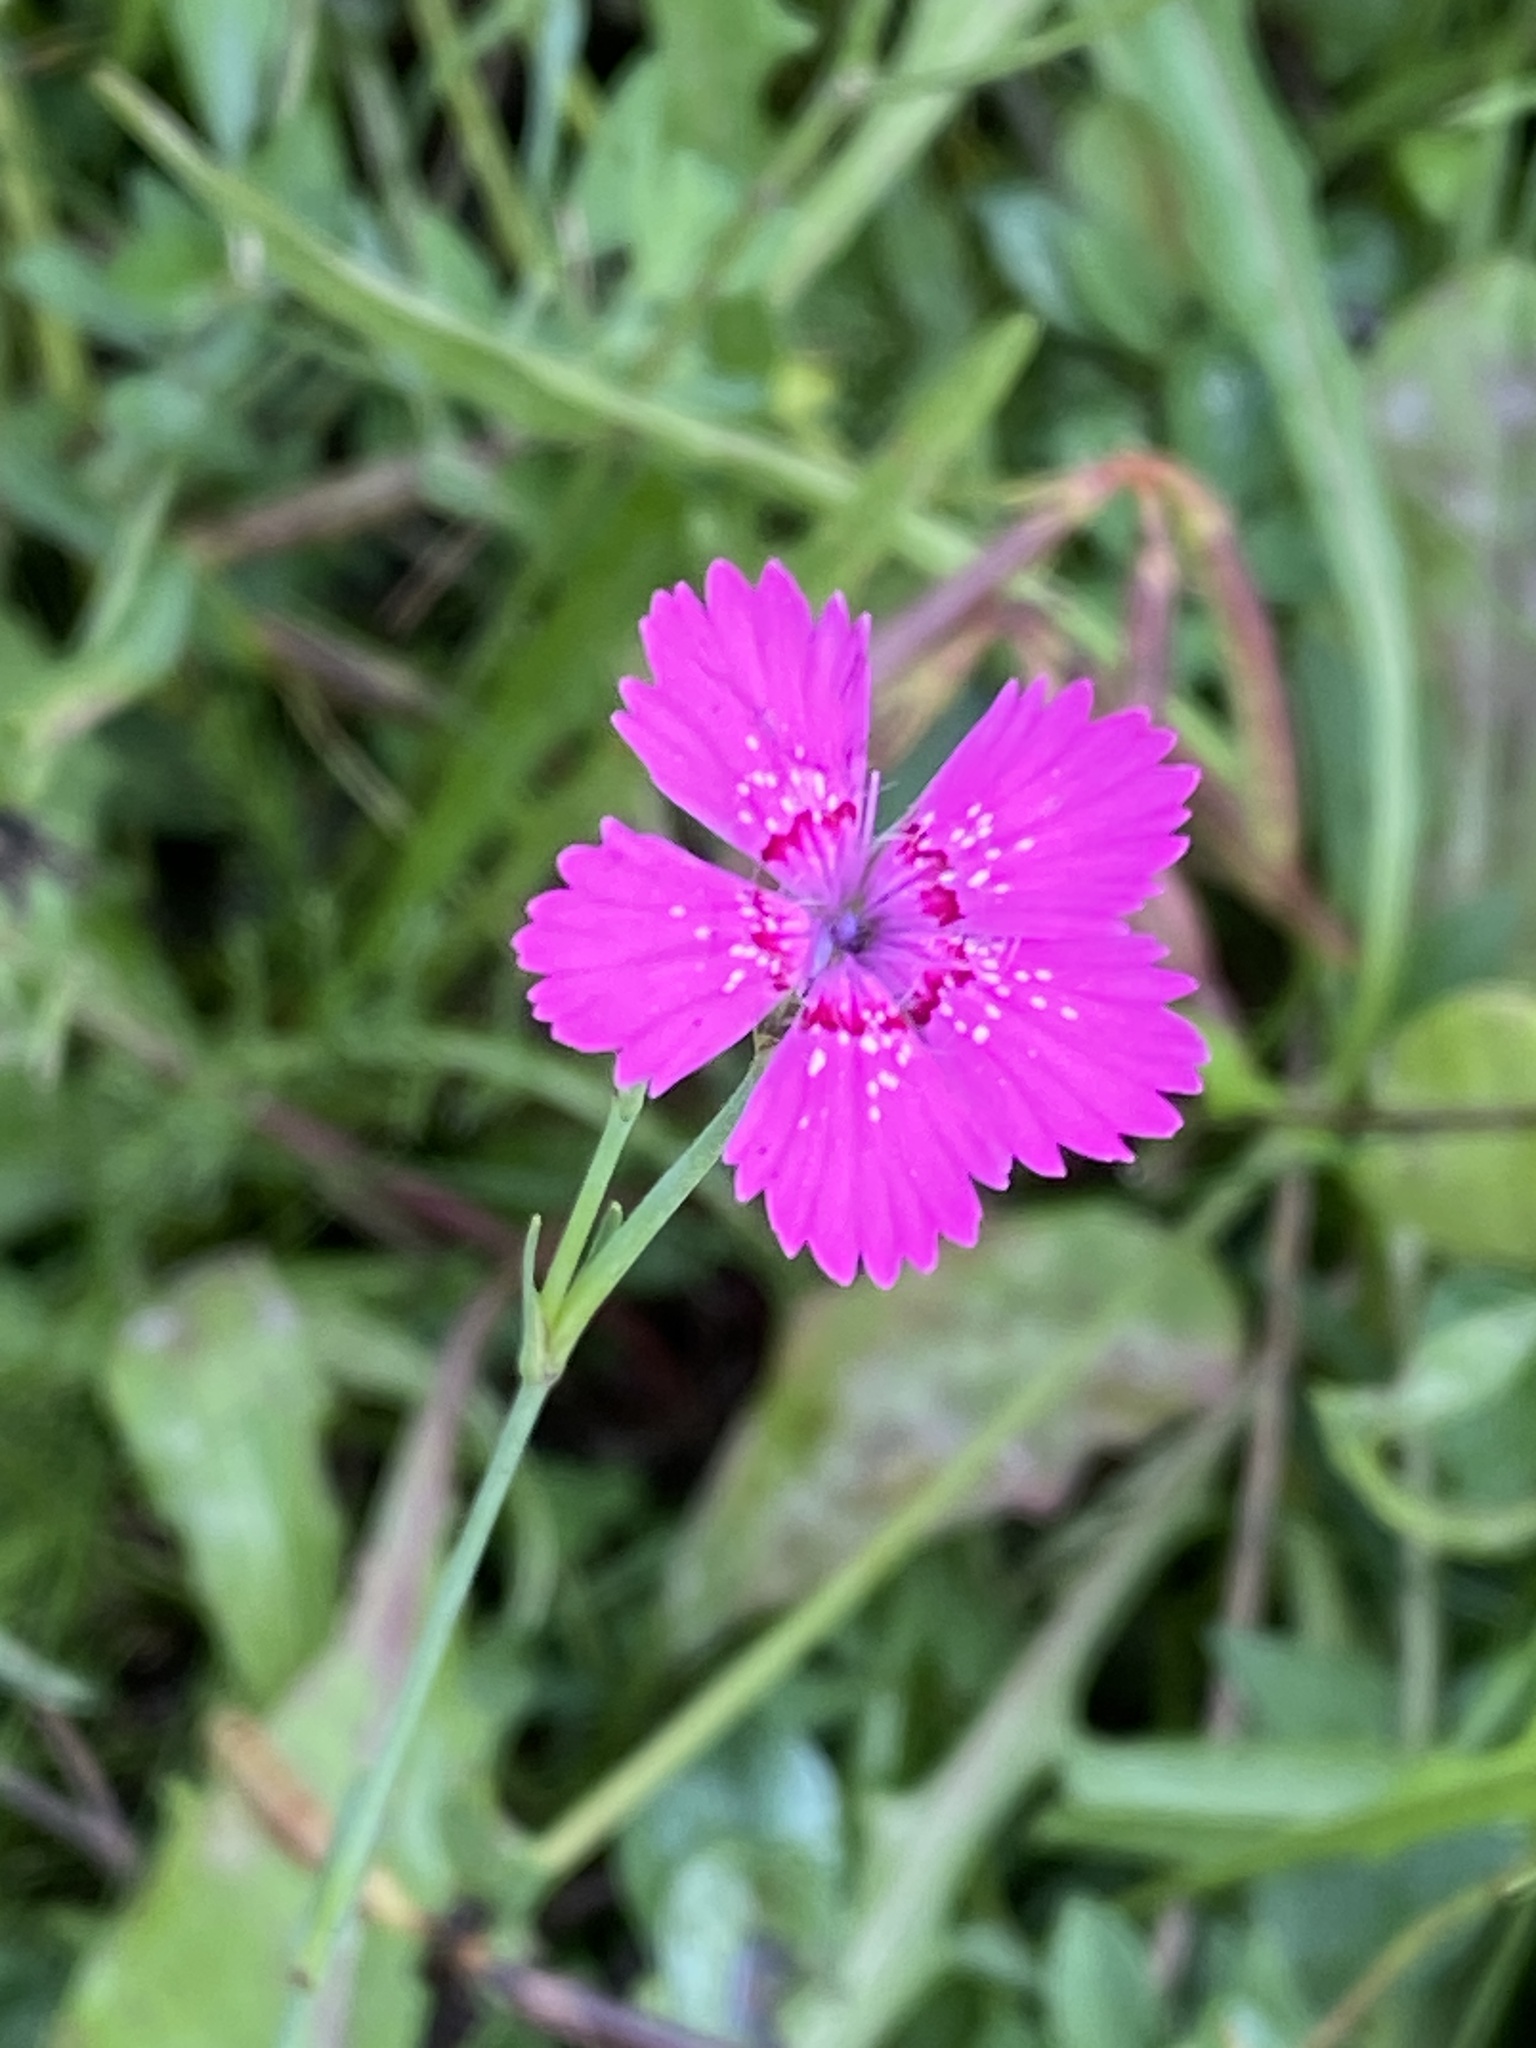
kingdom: Plantae
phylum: Tracheophyta
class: Magnoliopsida
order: Caryophyllales
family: Caryophyllaceae
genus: Dianthus
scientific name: Dianthus deltoides
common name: Maiden pink
